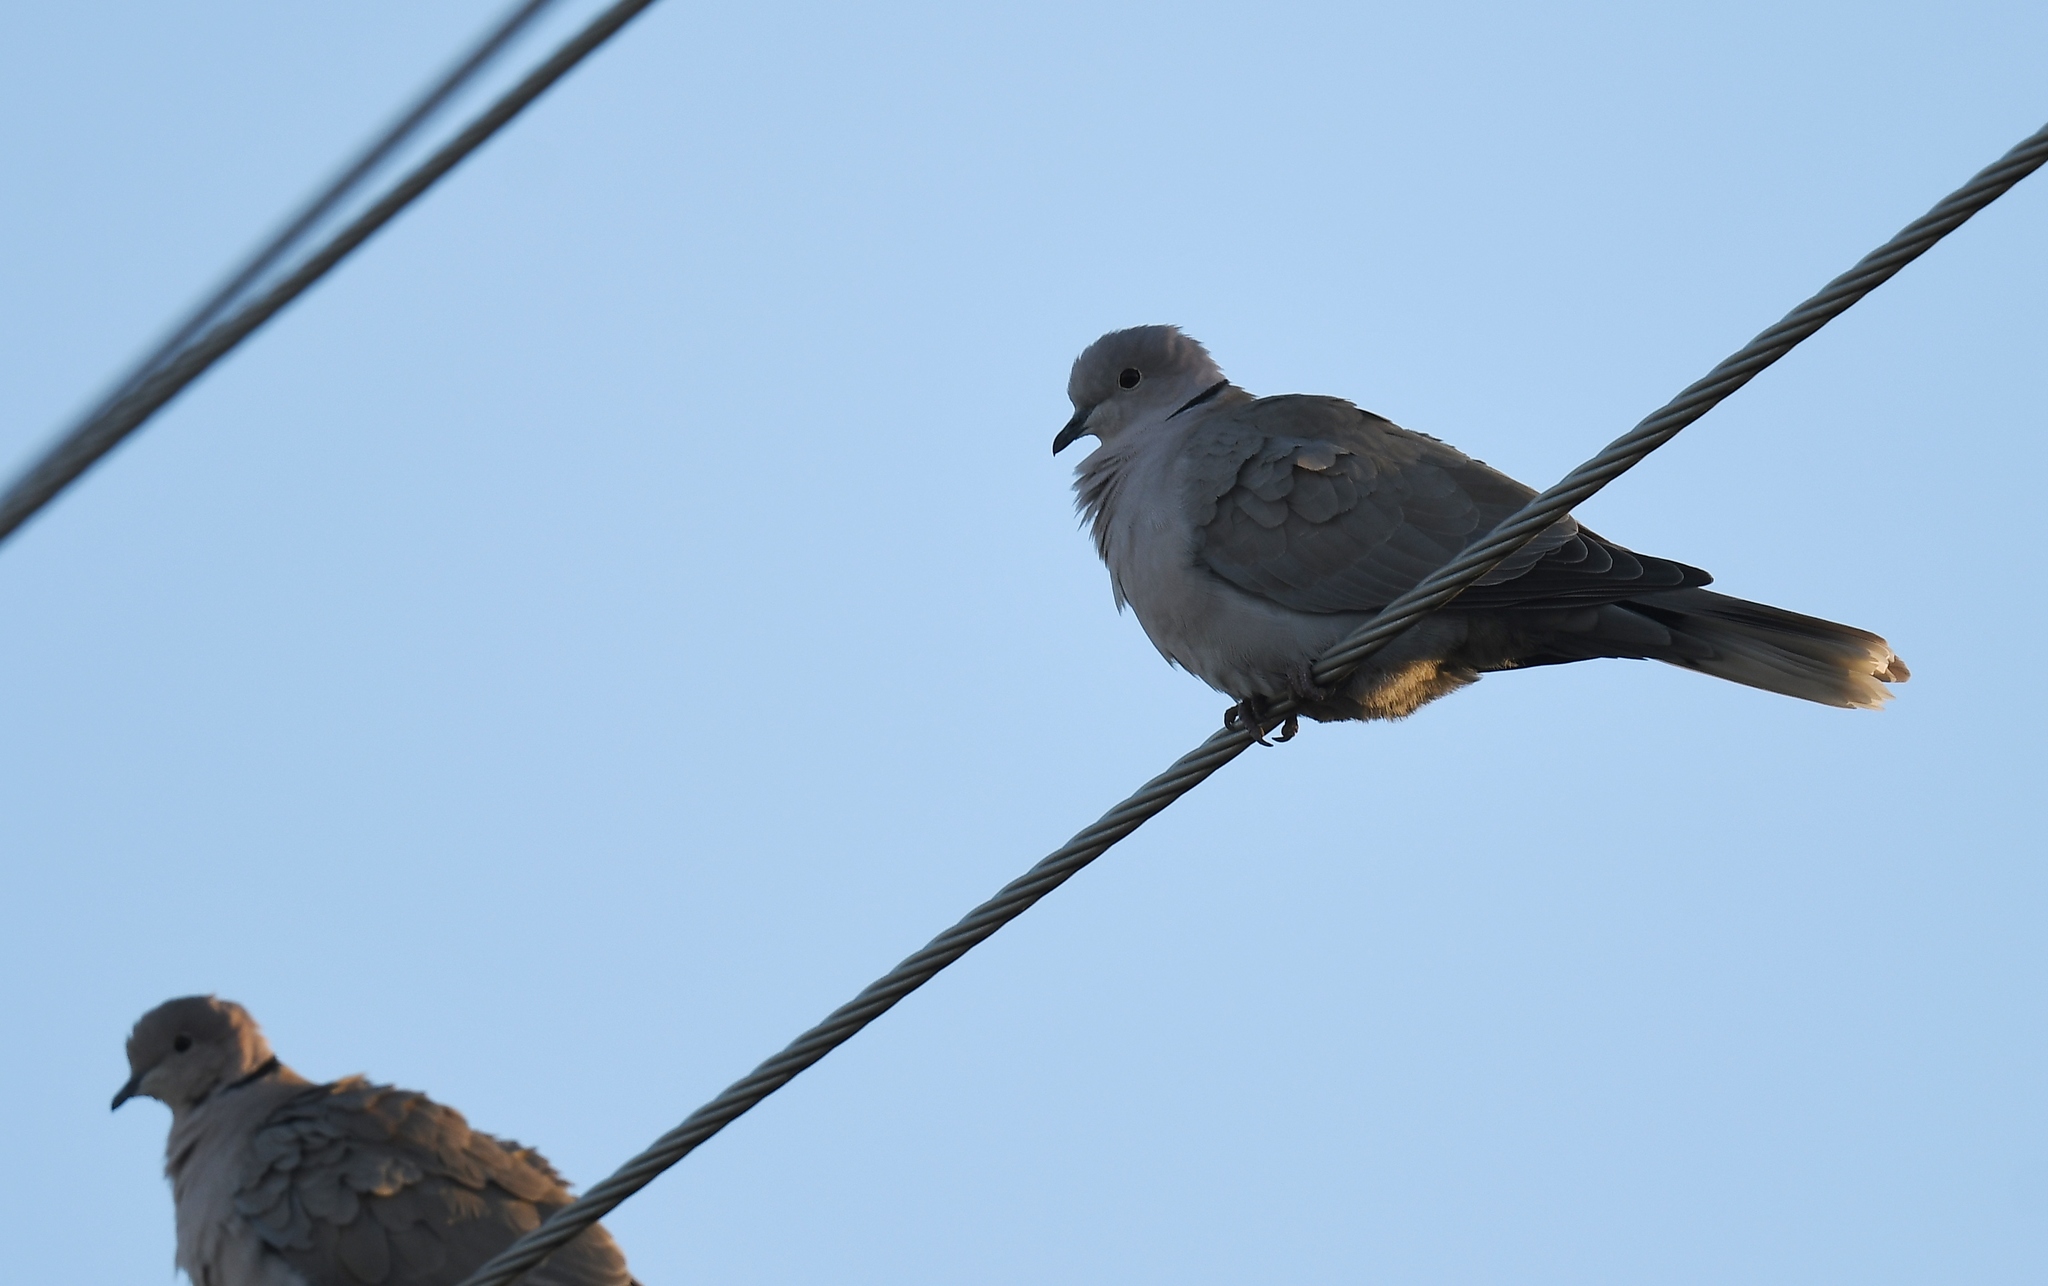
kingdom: Animalia
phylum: Chordata
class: Aves
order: Columbiformes
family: Columbidae
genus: Streptopelia
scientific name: Streptopelia decaocto
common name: Eurasian collared dove
